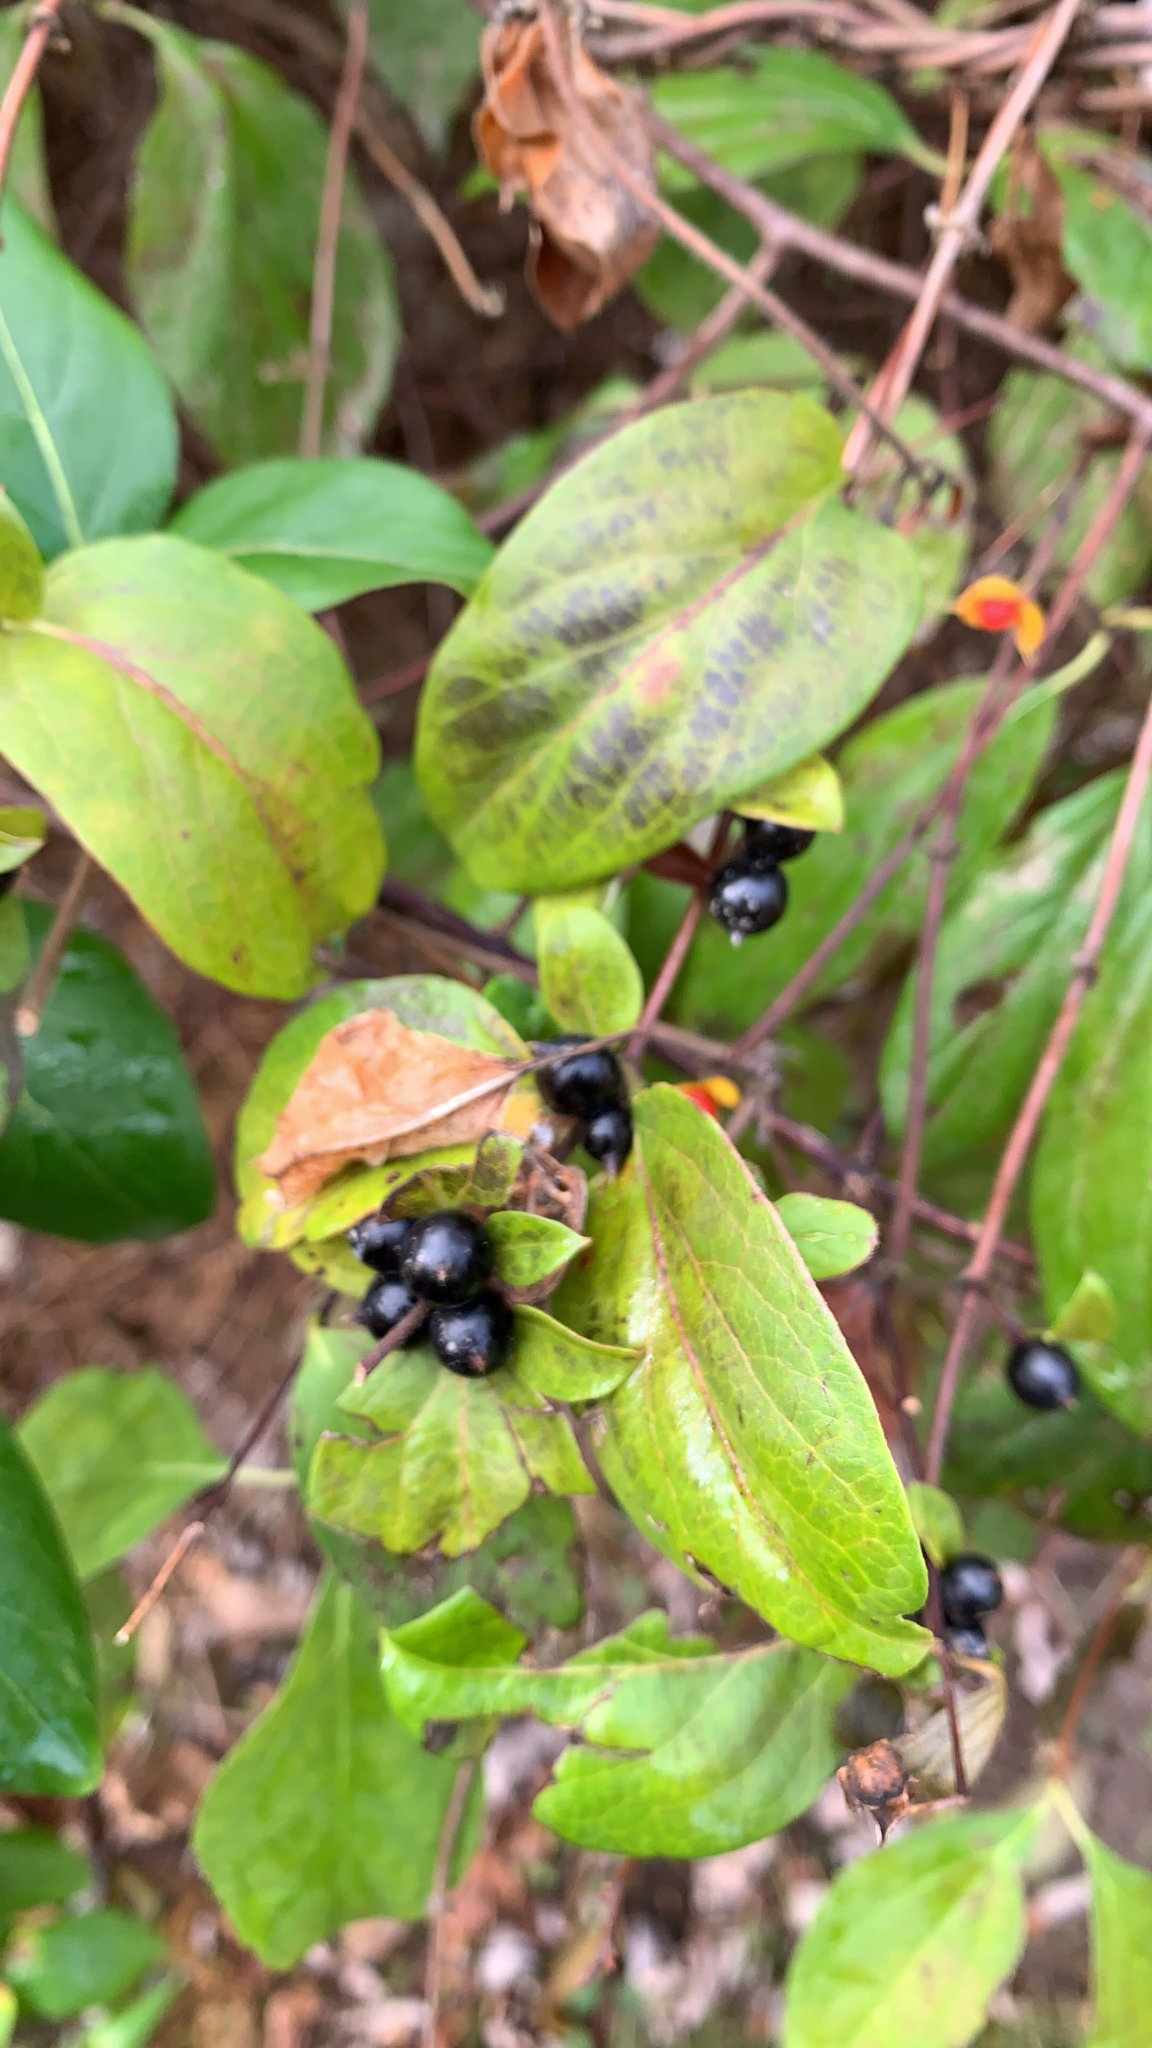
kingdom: Plantae
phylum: Tracheophyta
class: Magnoliopsida
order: Dipsacales
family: Caprifoliaceae
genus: Lonicera
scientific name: Lonicera japonica
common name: Japanese honeysuckle
